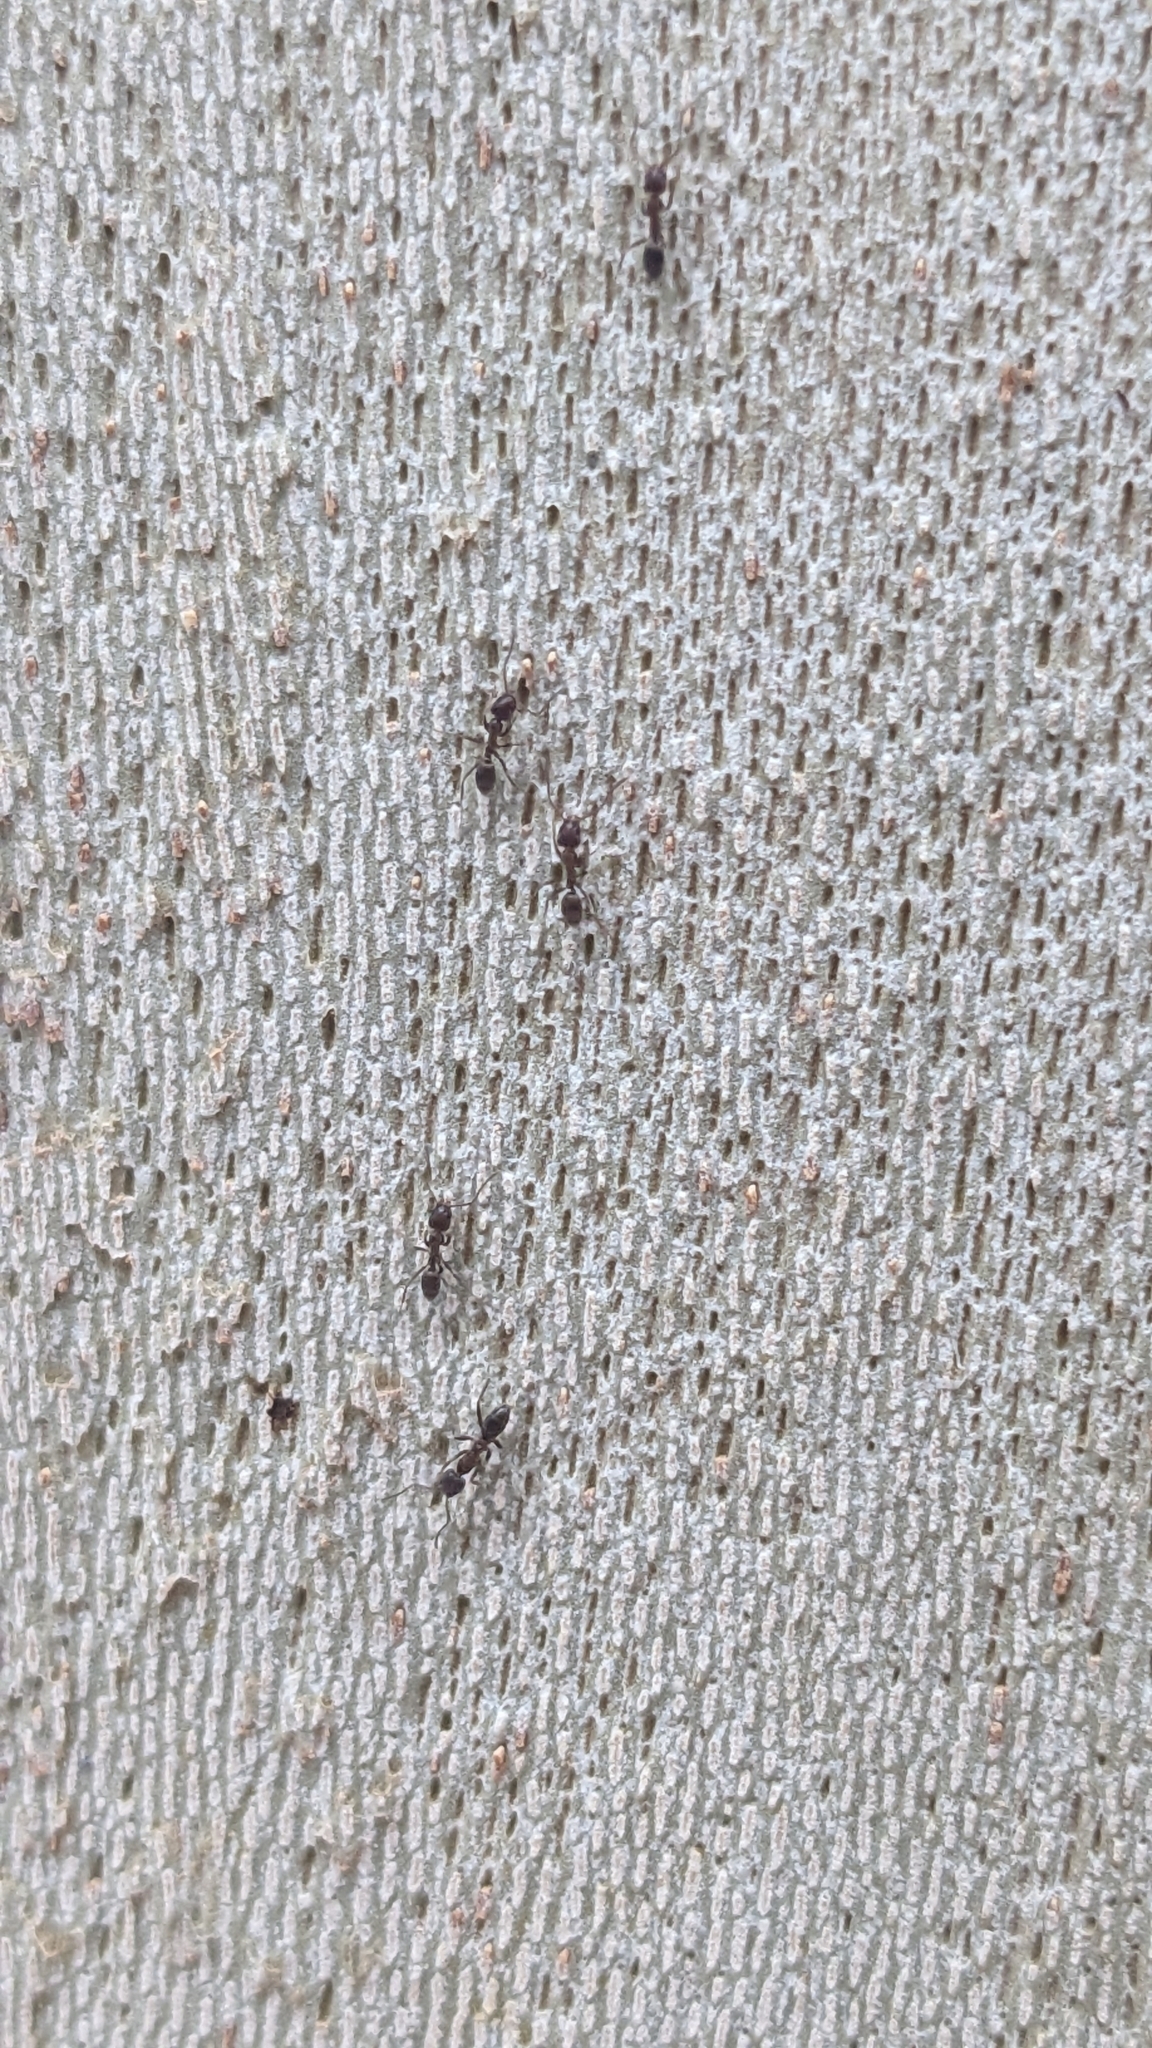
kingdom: Animalia
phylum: Arthropoda
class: Insecta
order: Hymenoptera
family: Formicidae
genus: Linepithema
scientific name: Linepithema humile
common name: Argentine ant
